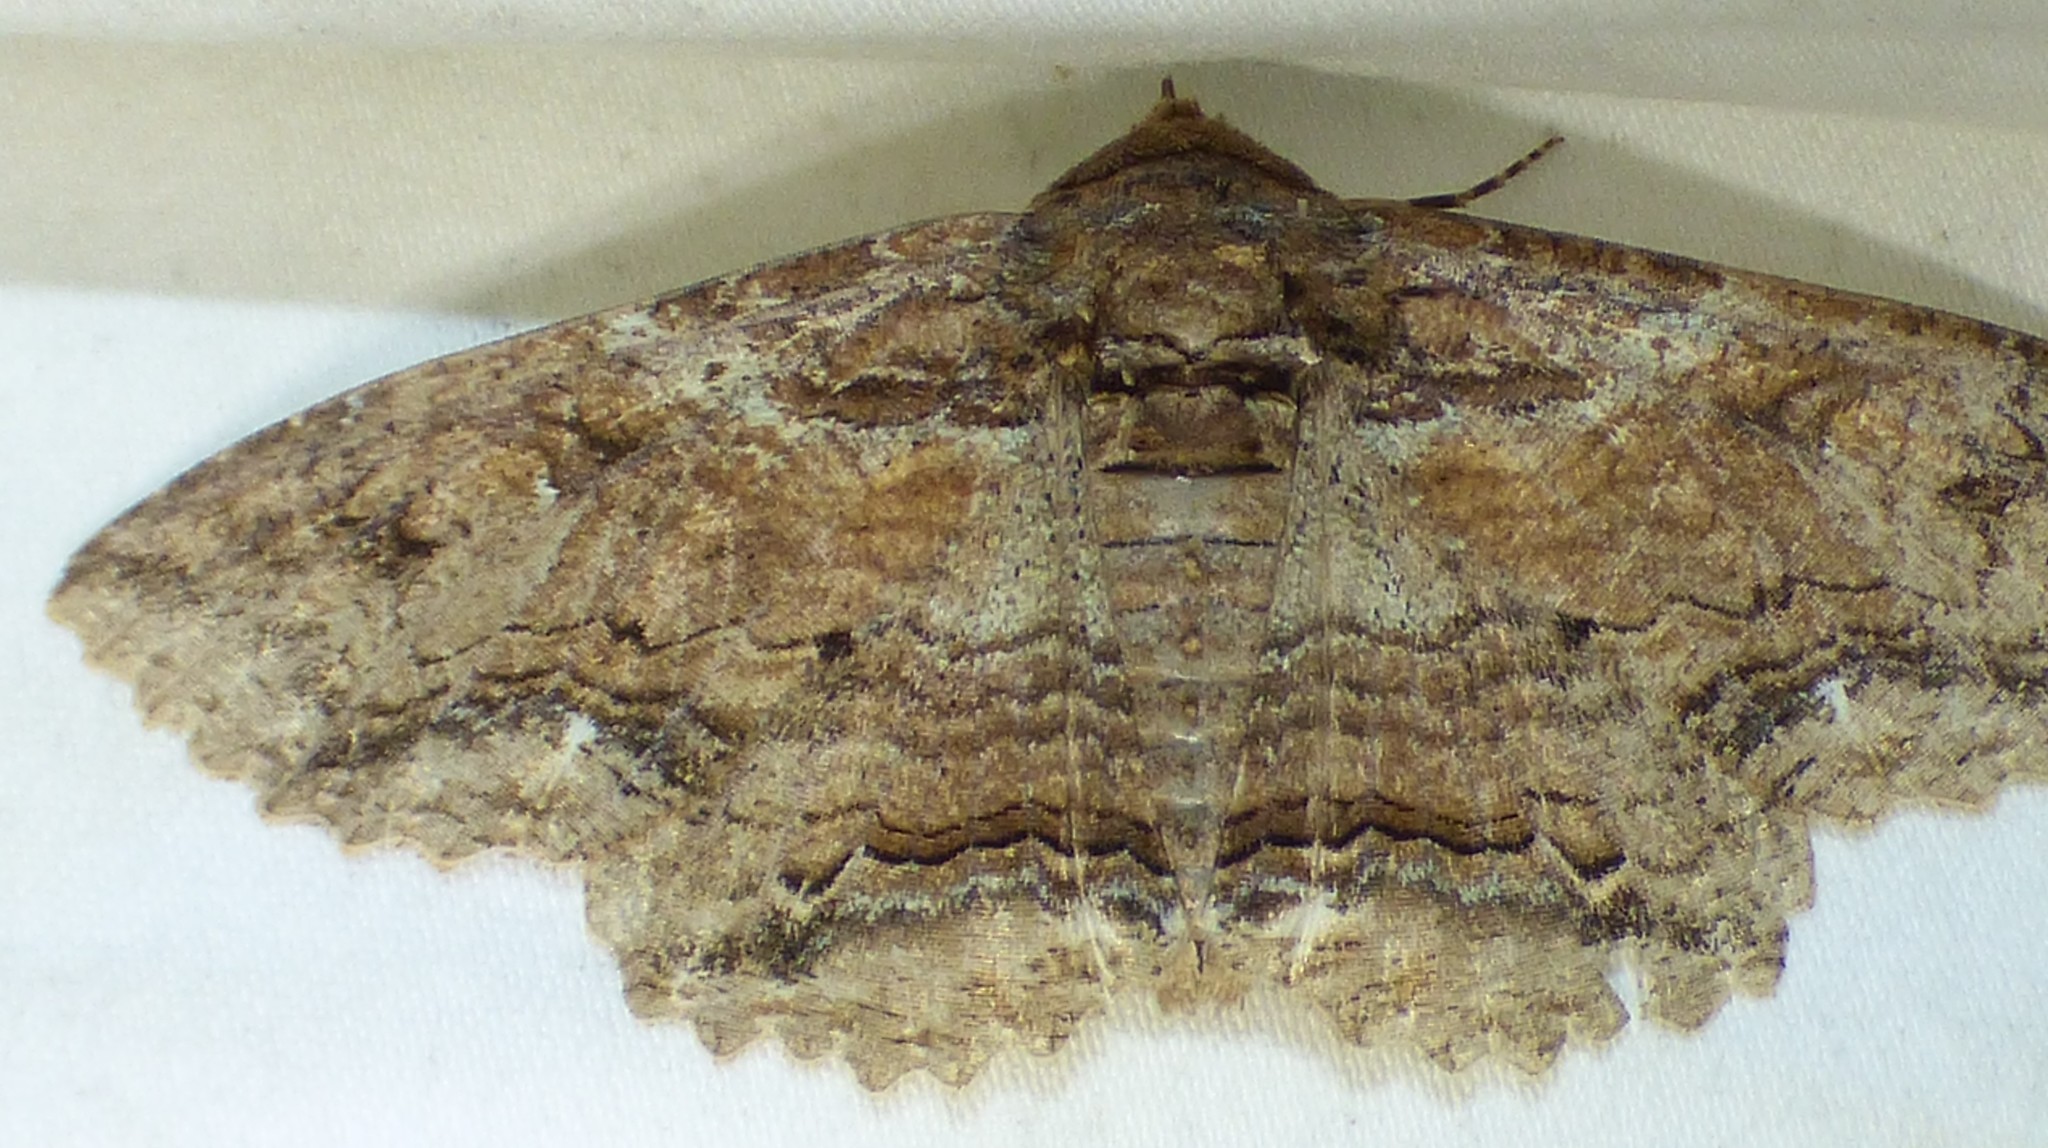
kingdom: Animalia
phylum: Arthropoda
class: Insecta
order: Lepidoptera
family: Erebidae
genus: Zale
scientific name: Zale lunata
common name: Lunate zale moth
